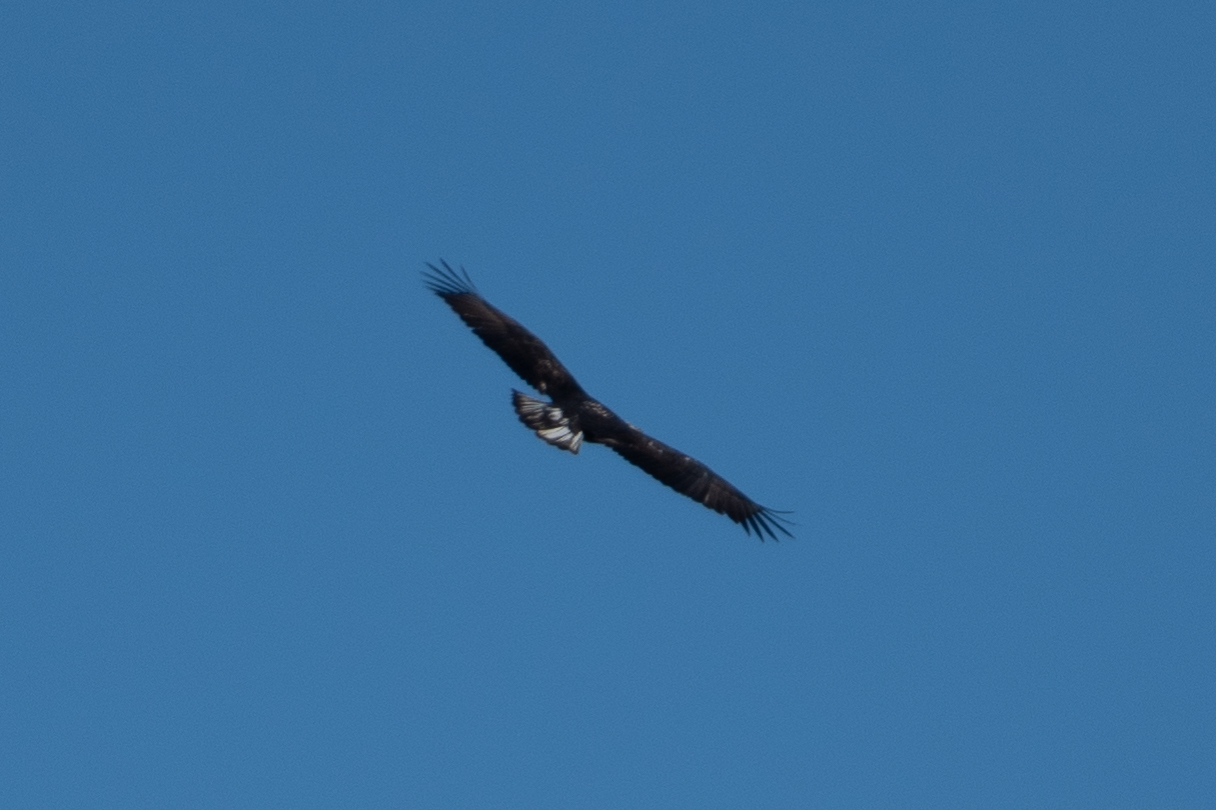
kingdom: Animalia
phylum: Chordata
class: Aves
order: Accipitriformes
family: Accipitridae
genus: Haliaeetus
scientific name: Haliaeetus leucocephalus
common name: Bald eagle
